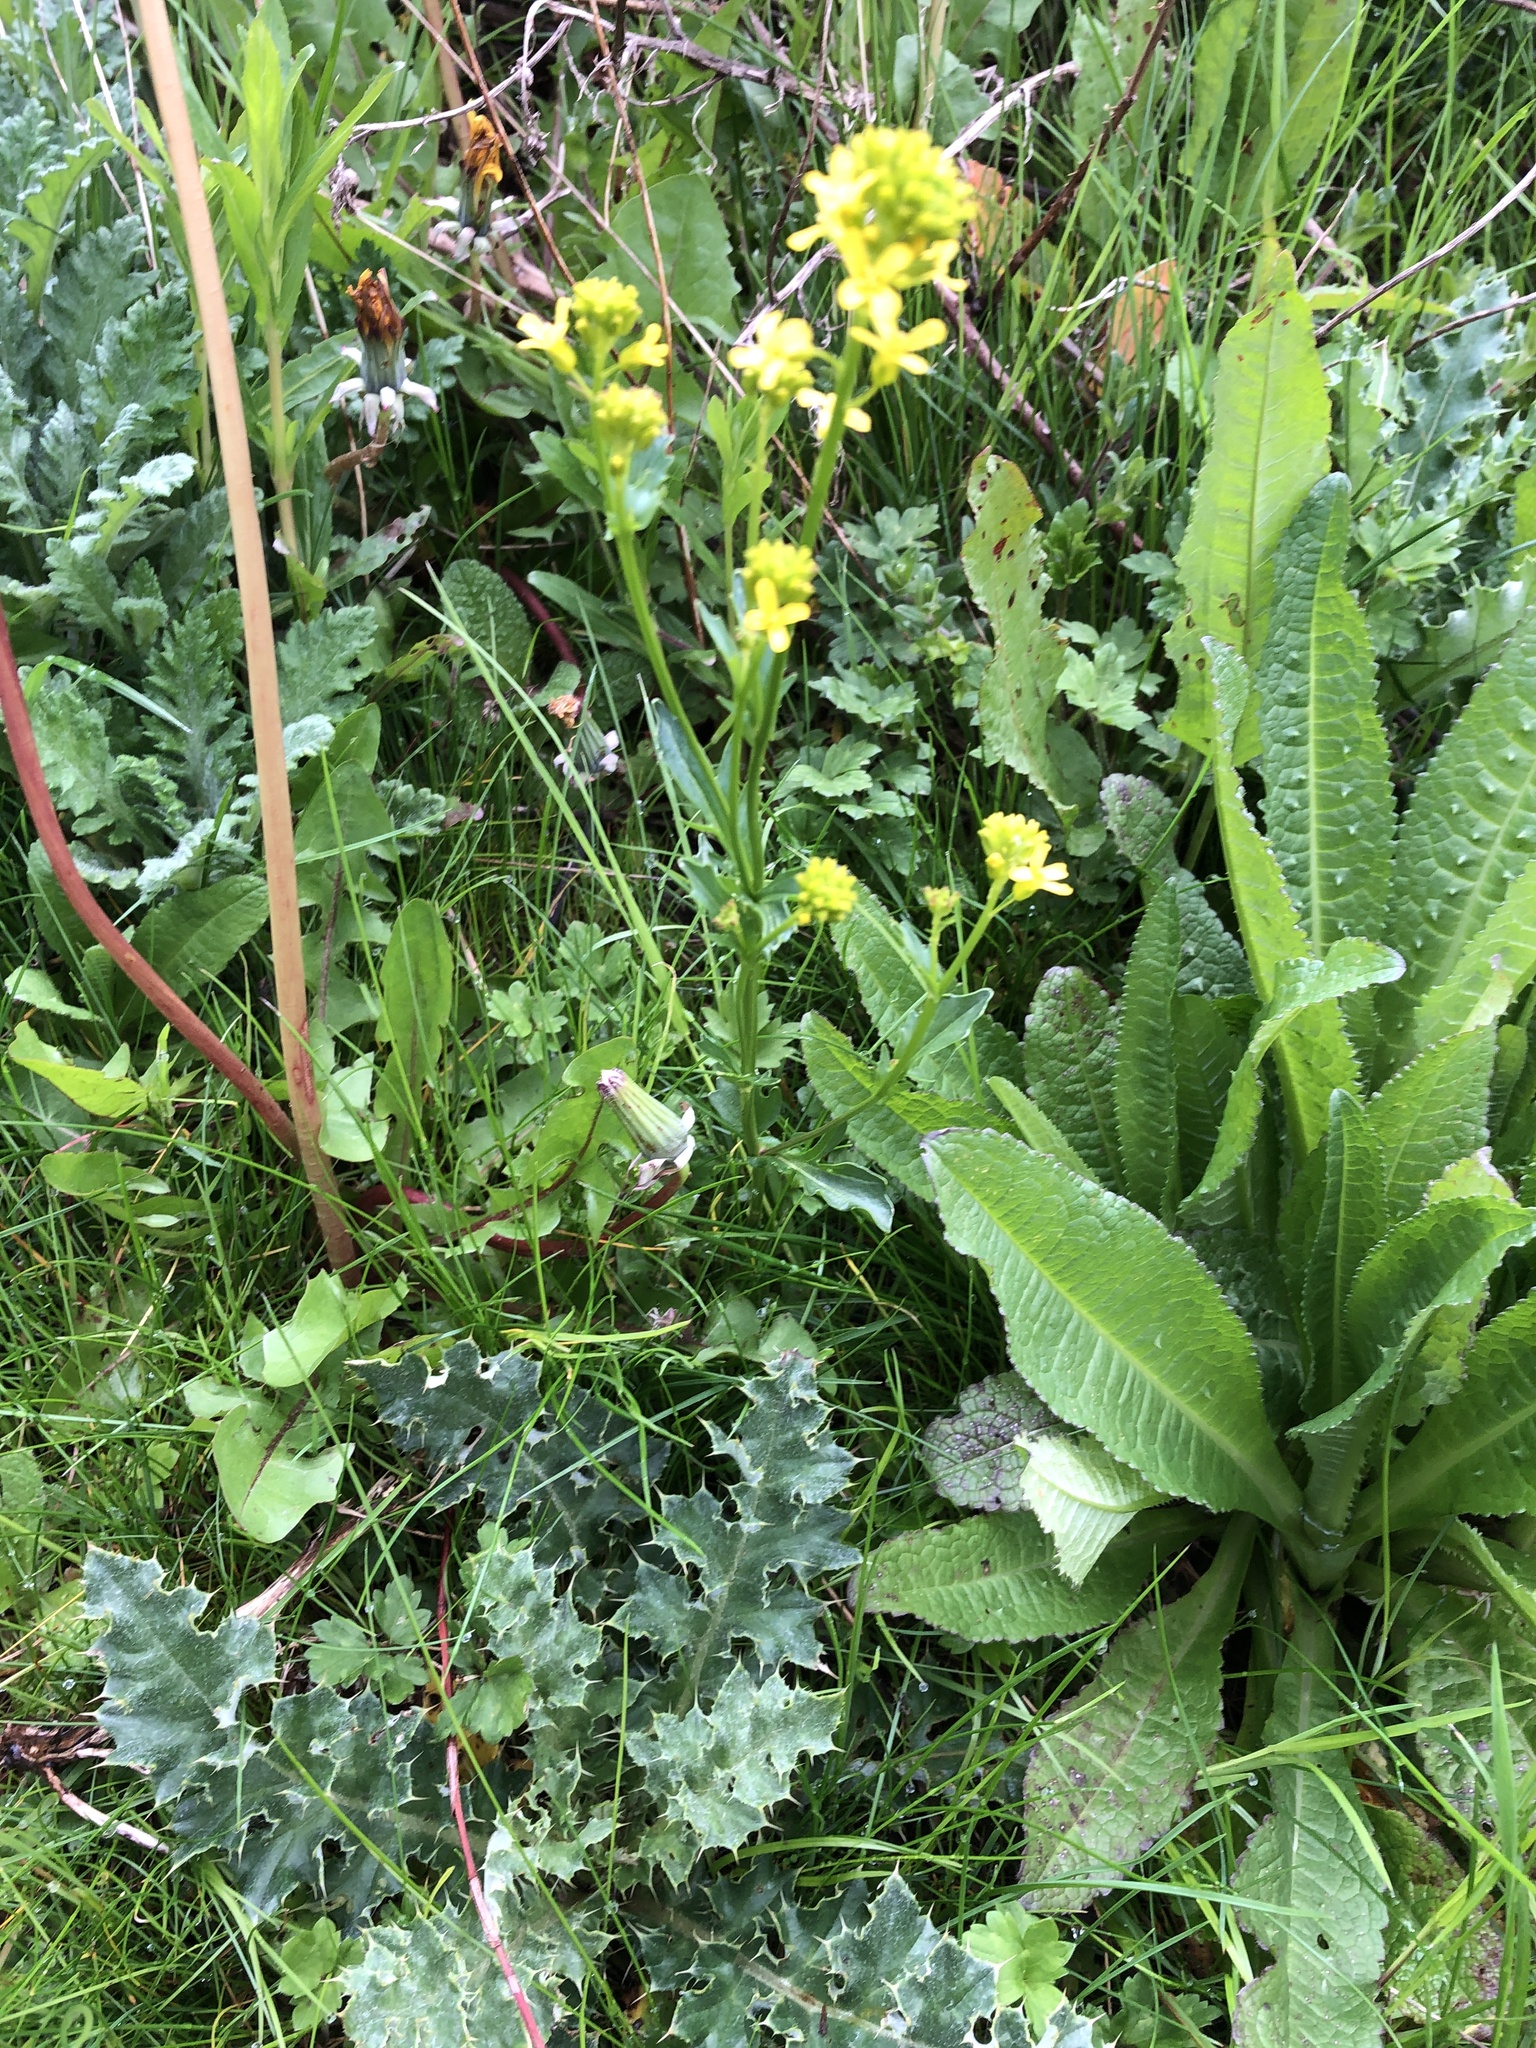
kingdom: Plantae
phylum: Tracheophyta
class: Magnoliopsida
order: Brassicales
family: Brassicaceae
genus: Barbarea
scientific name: Barbarea vulgaris
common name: Cressy-greens
